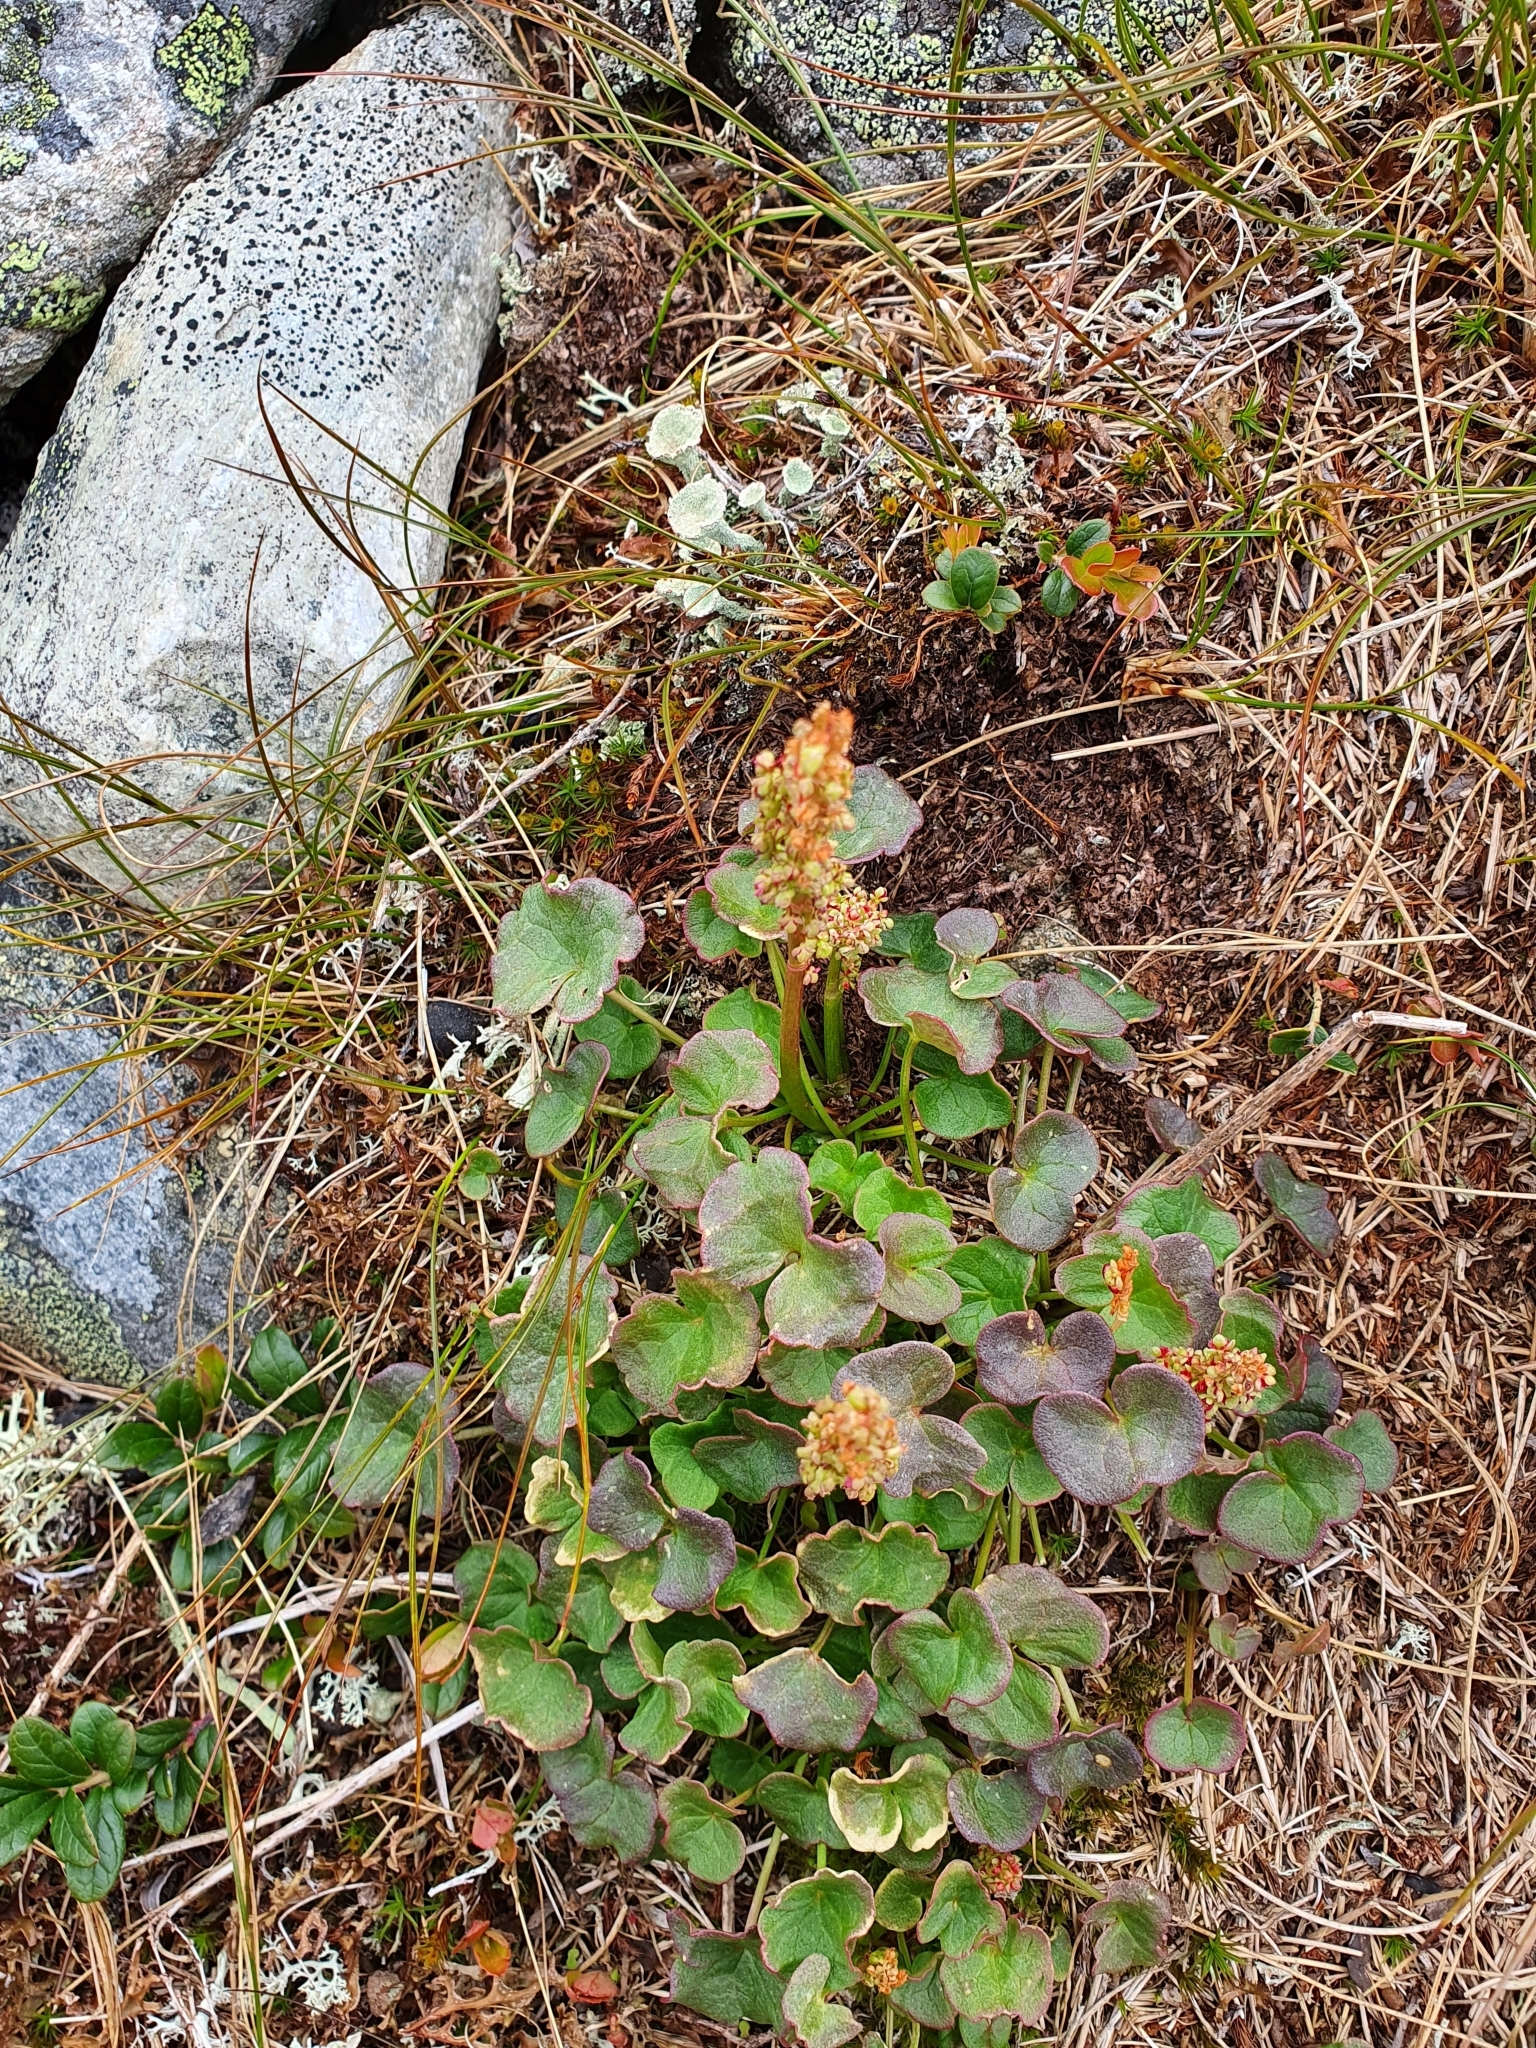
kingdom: Plantae
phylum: Tracheophyta
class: Magnoliopsida
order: Caryophyllales
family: Polygonaceae
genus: Oxyria
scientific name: Oxyria digyna
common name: Alpine mountain-sorrel
